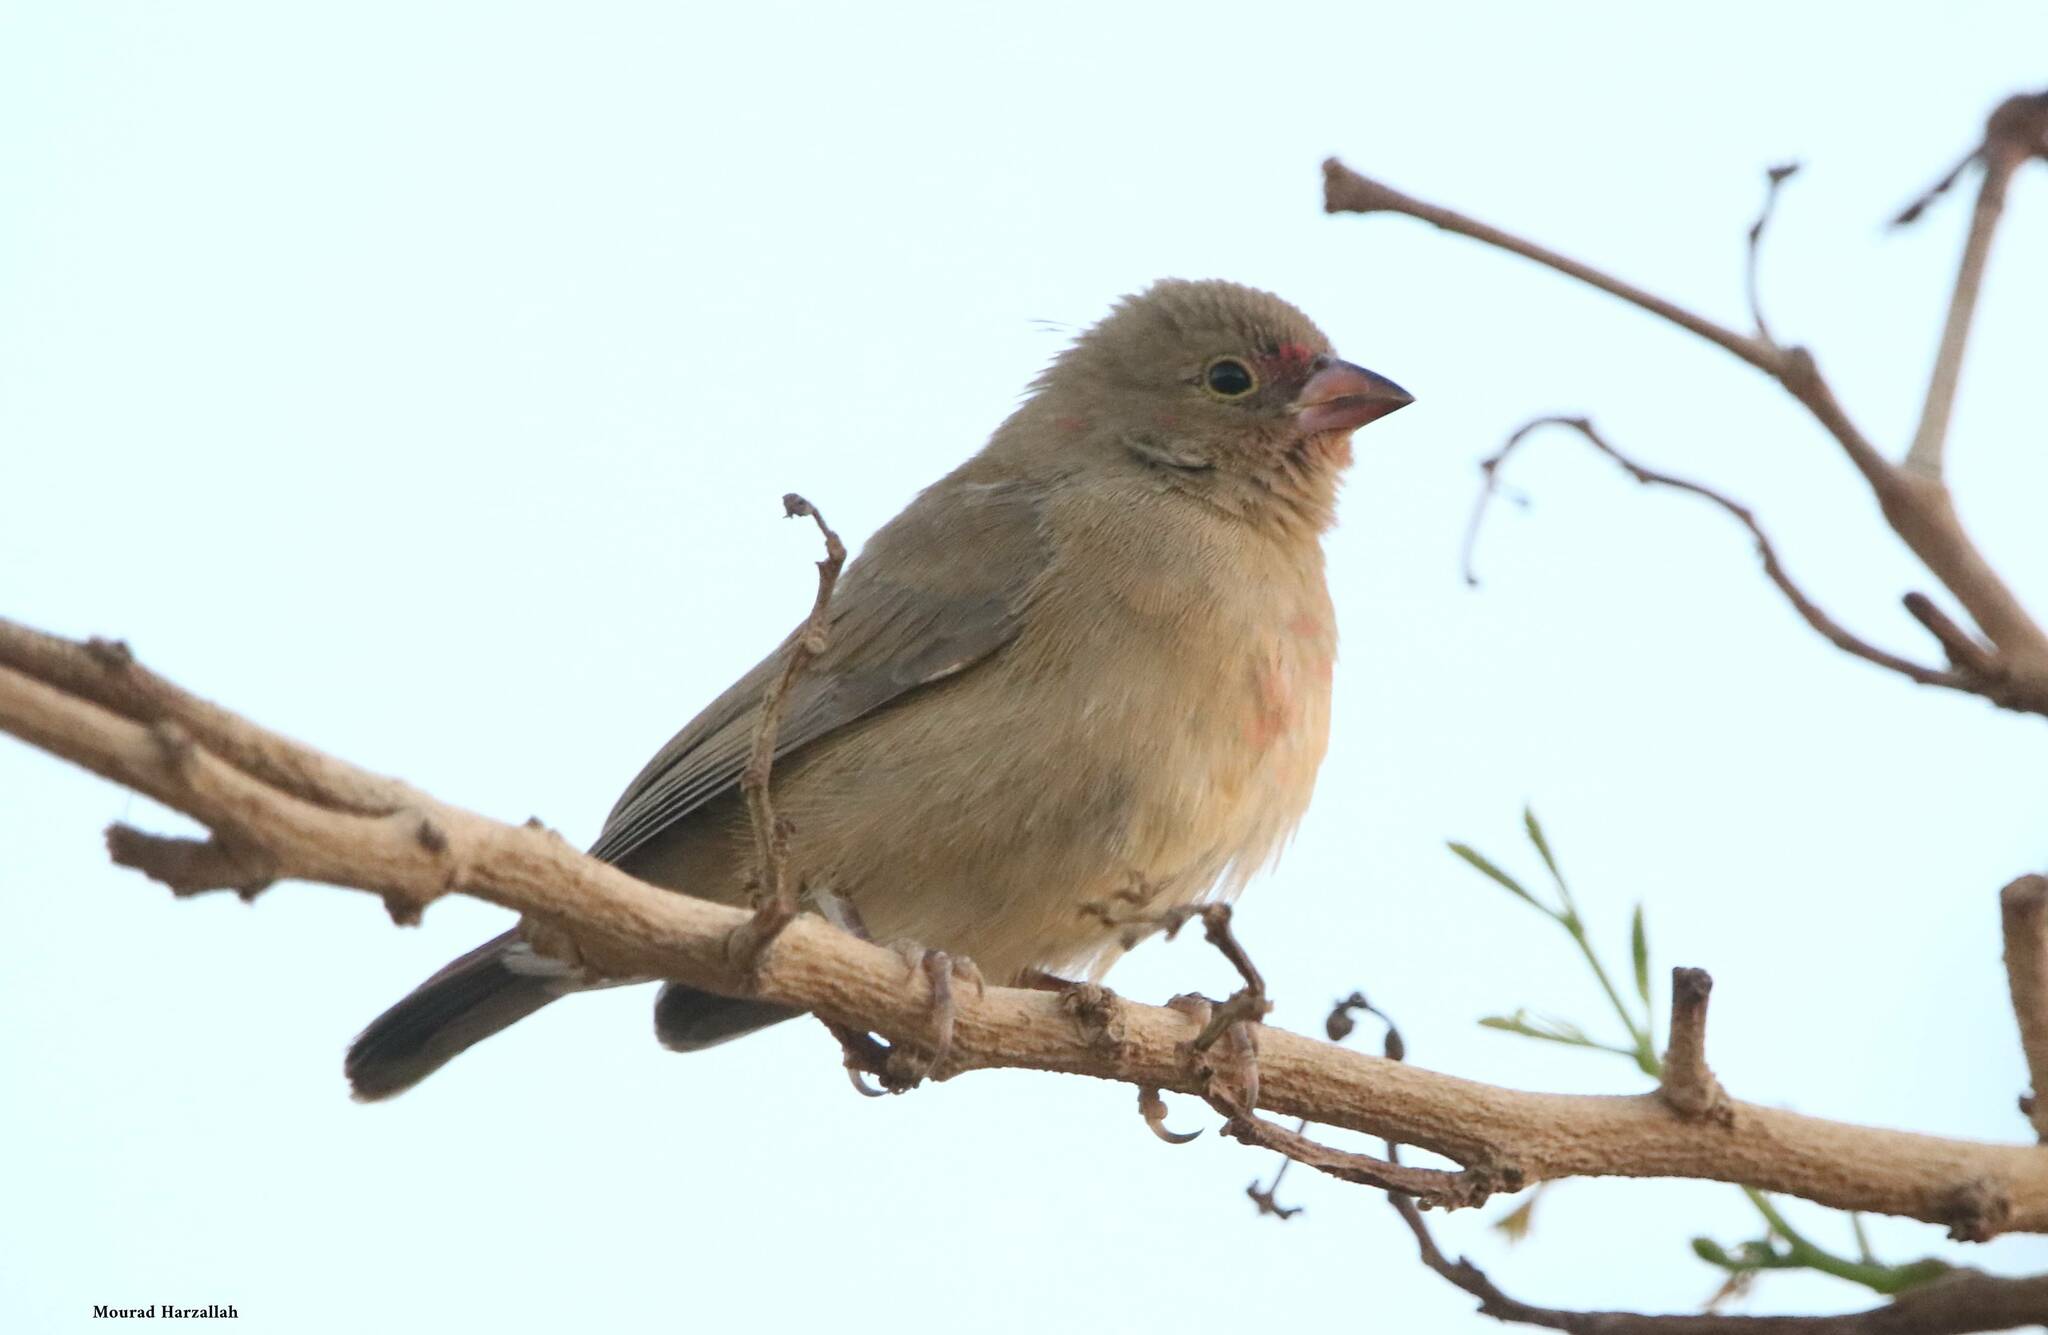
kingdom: Animalia
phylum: Chordata
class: Aves
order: Passeriformes
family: Estrildidae
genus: Lagonosticta
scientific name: Lagonosticta senegala
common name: Red-billed firefinch
